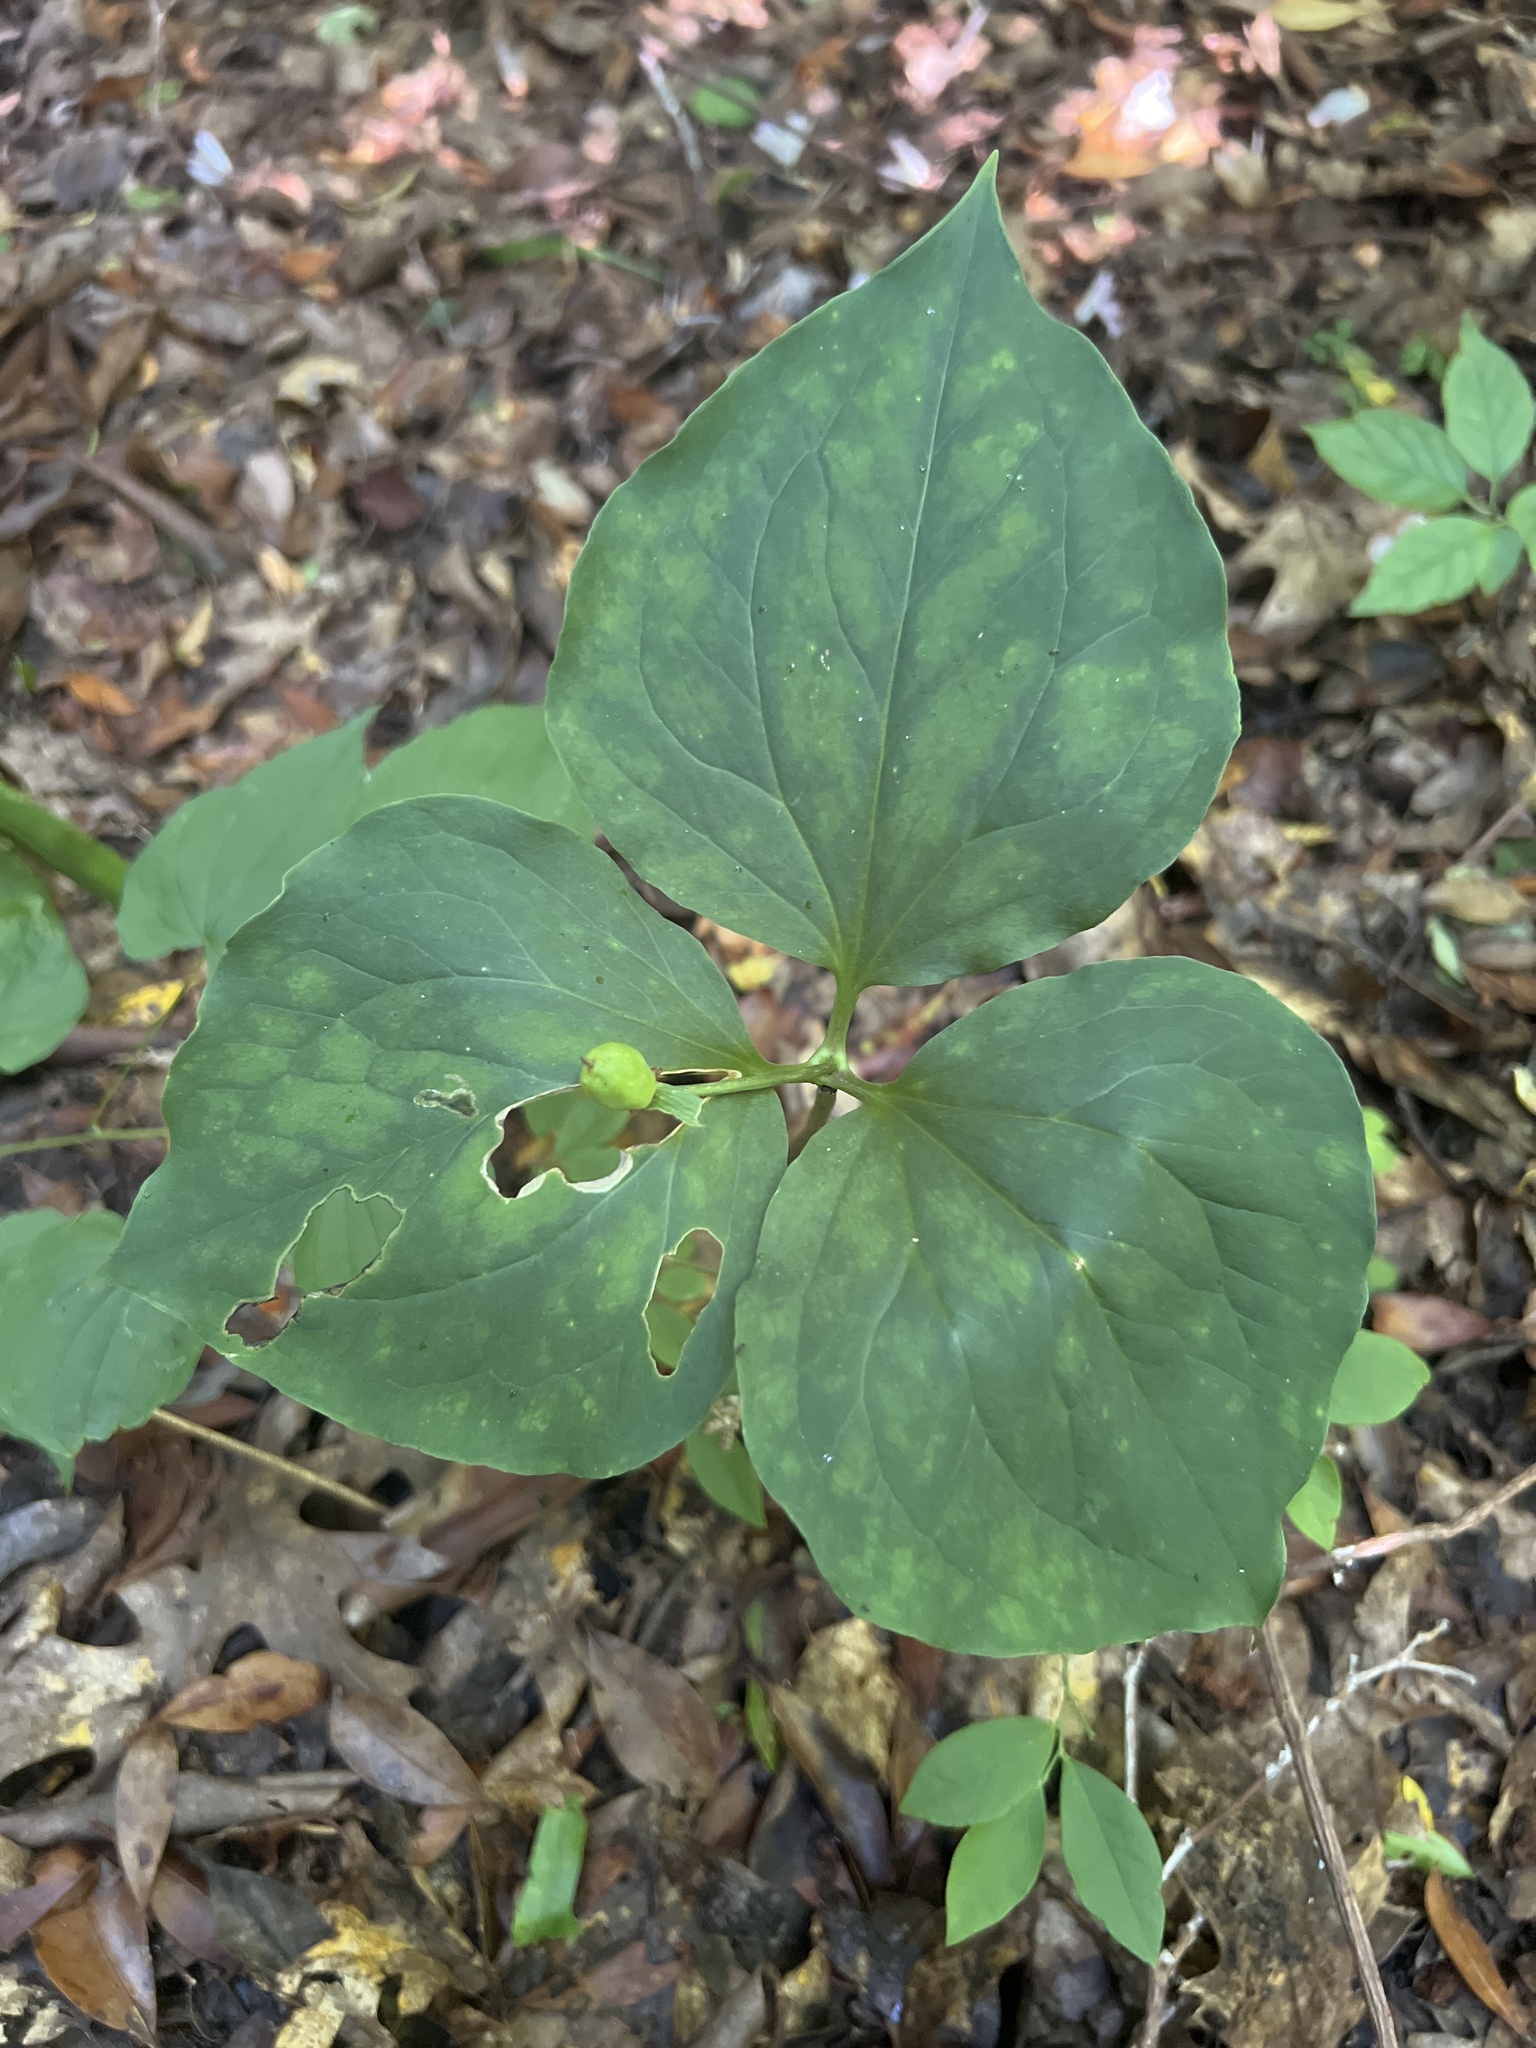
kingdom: Plantae
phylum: Tracheophyta
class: Liliopsida
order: Liliales
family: Melanthiaceae
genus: Trillium
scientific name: Trillium undulatum
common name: Paint trillium
